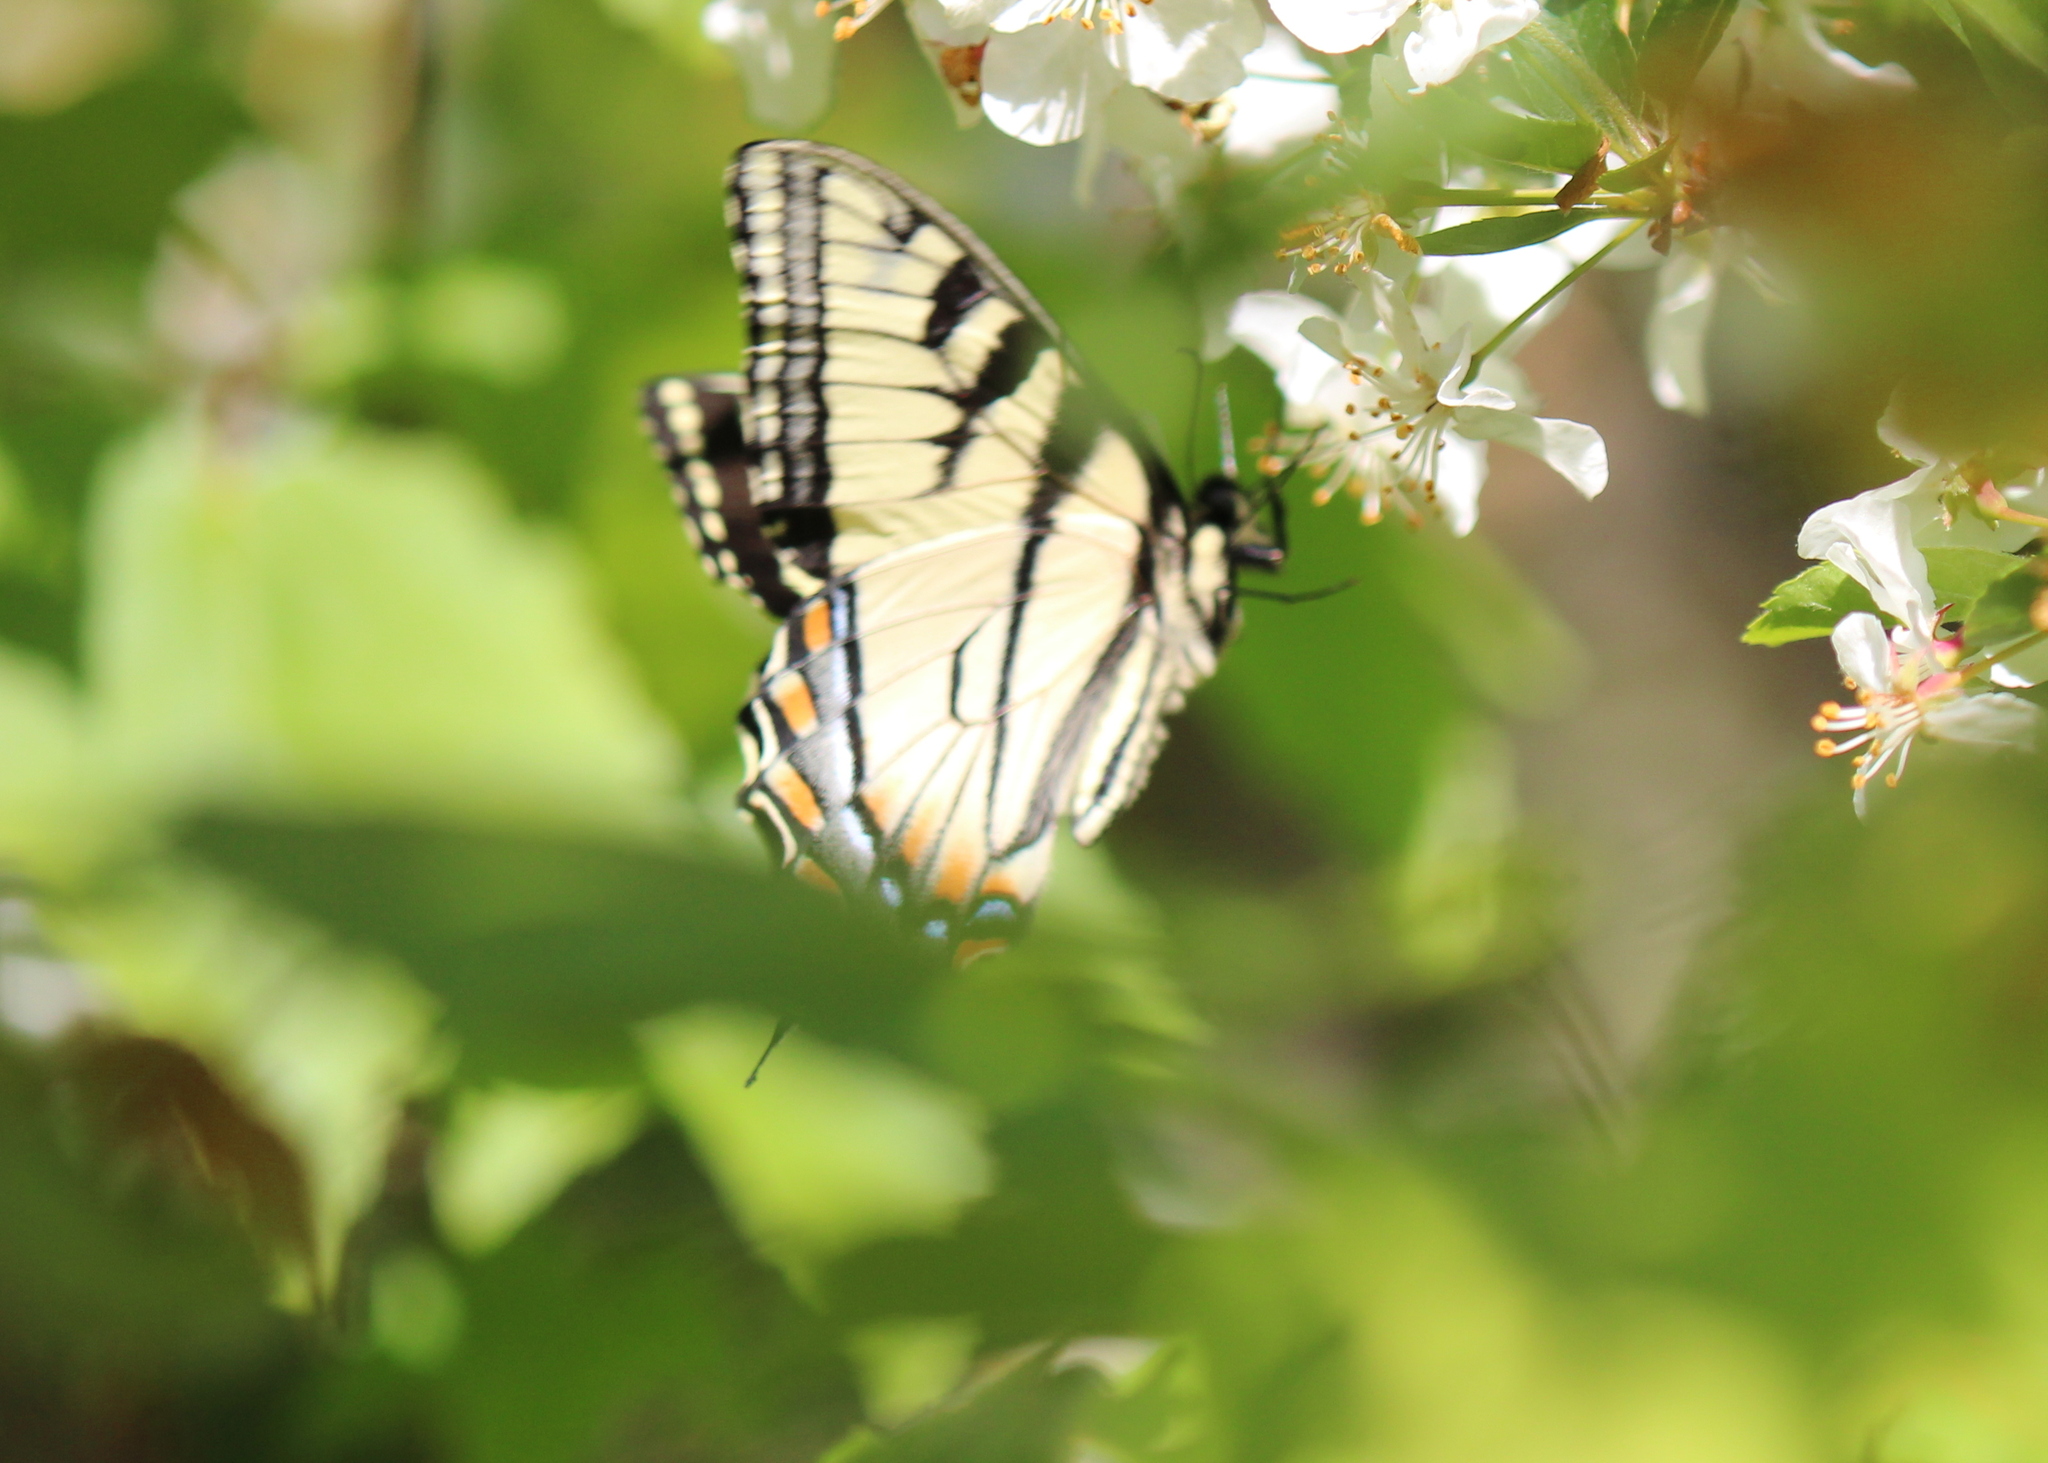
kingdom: Animalia
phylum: Arthropoda
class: Insecta
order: Lepidoptera
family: Papilionidae
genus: Papilio
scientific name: Papilio canadensis
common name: Canadian tiger swallowtail
